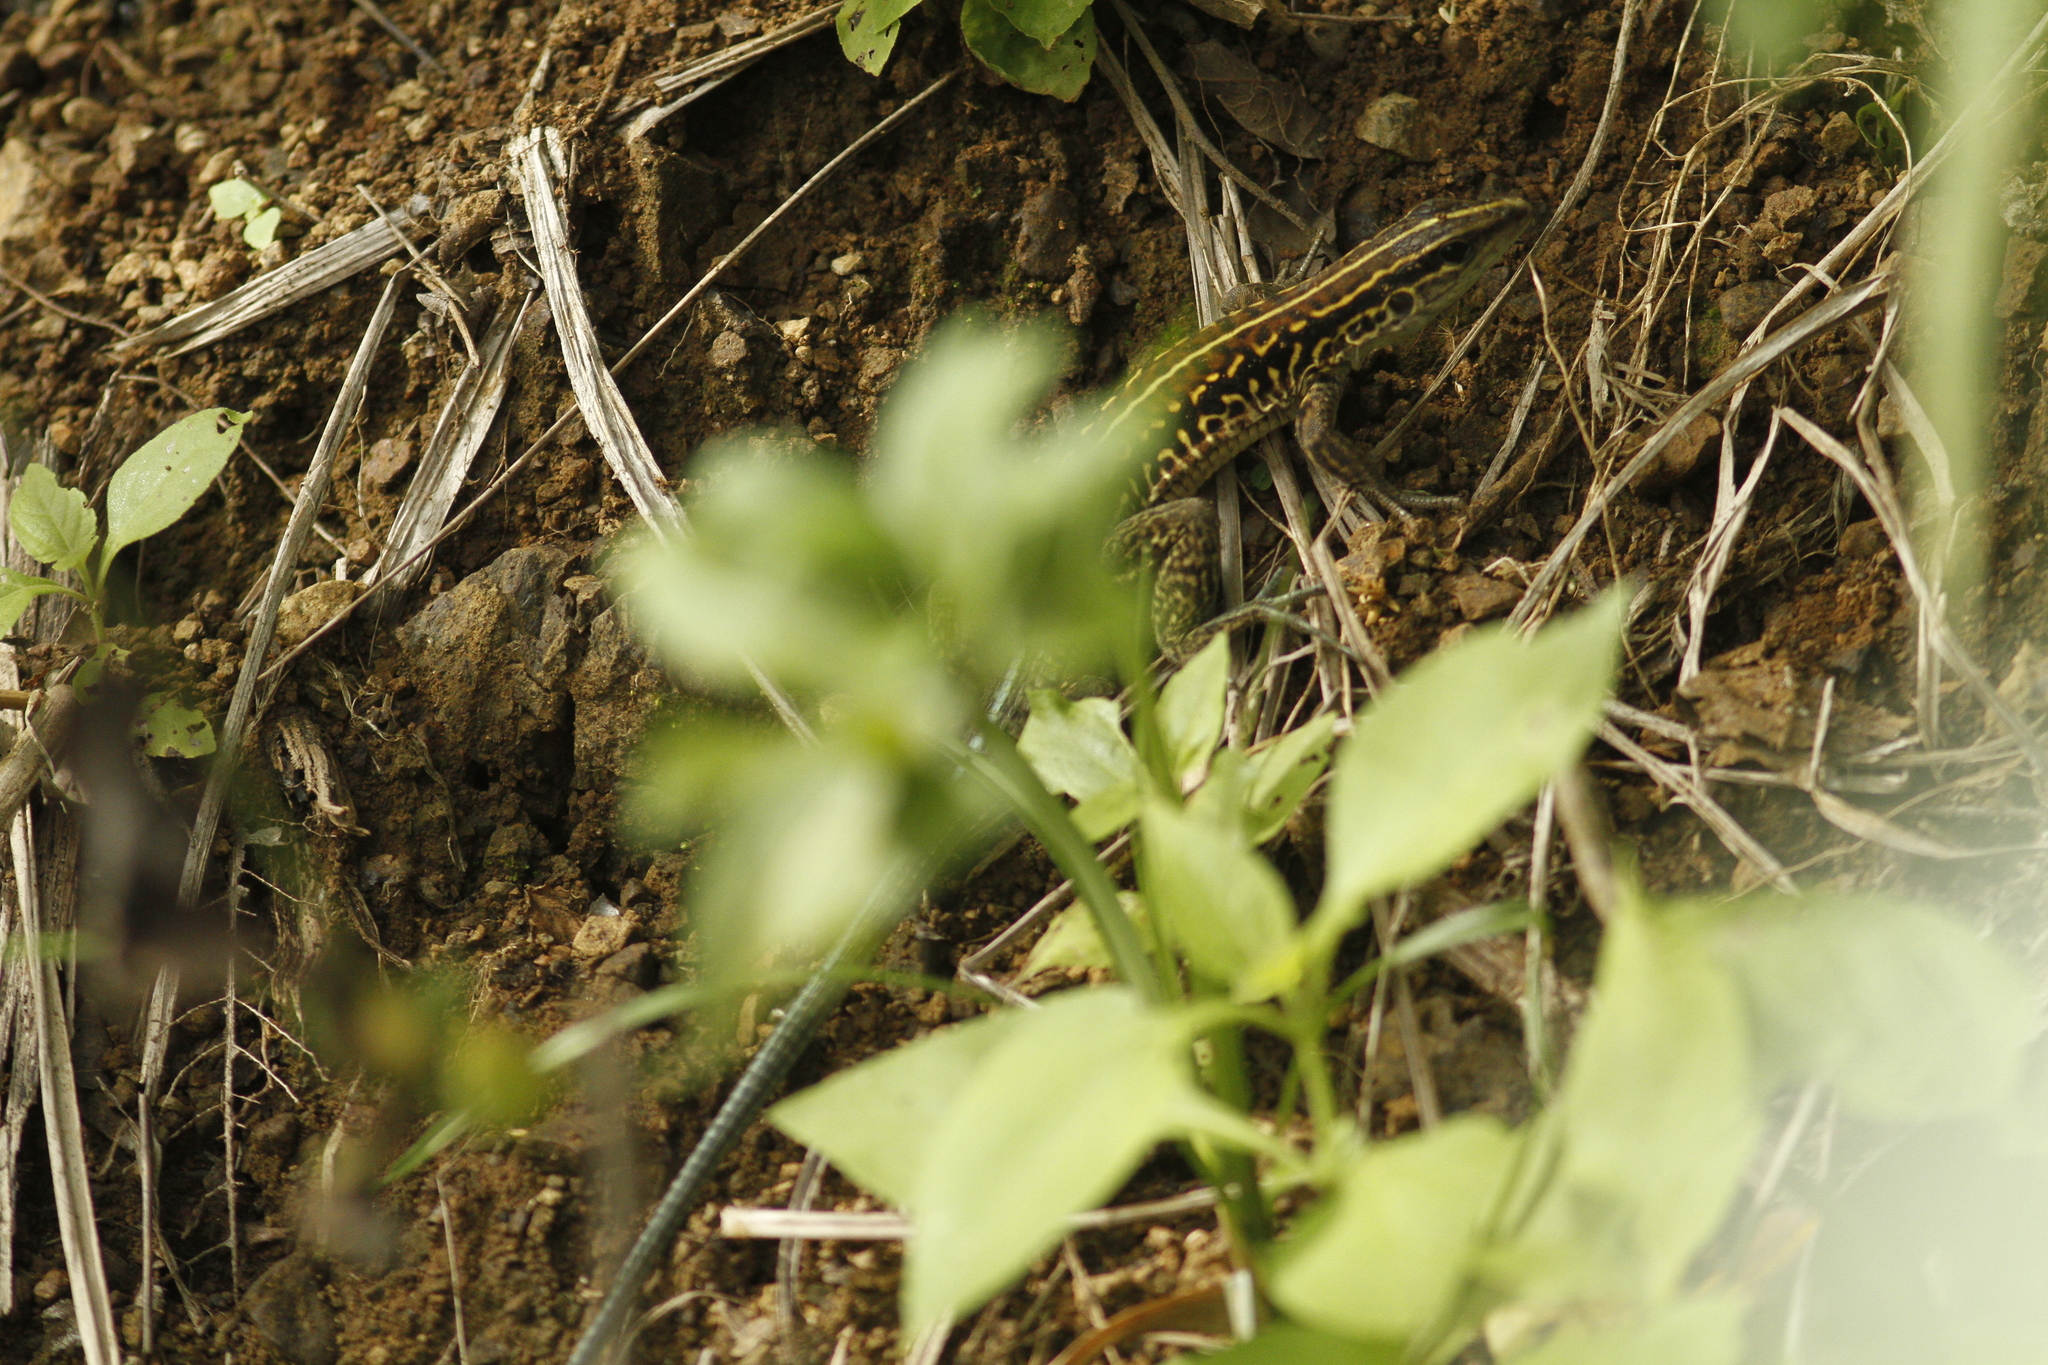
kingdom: Animalia
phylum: Chordata
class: Squamata
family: Teiidae
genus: Holcosus
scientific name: Holcosus septemlineatus
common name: Seven-lined ameiva
